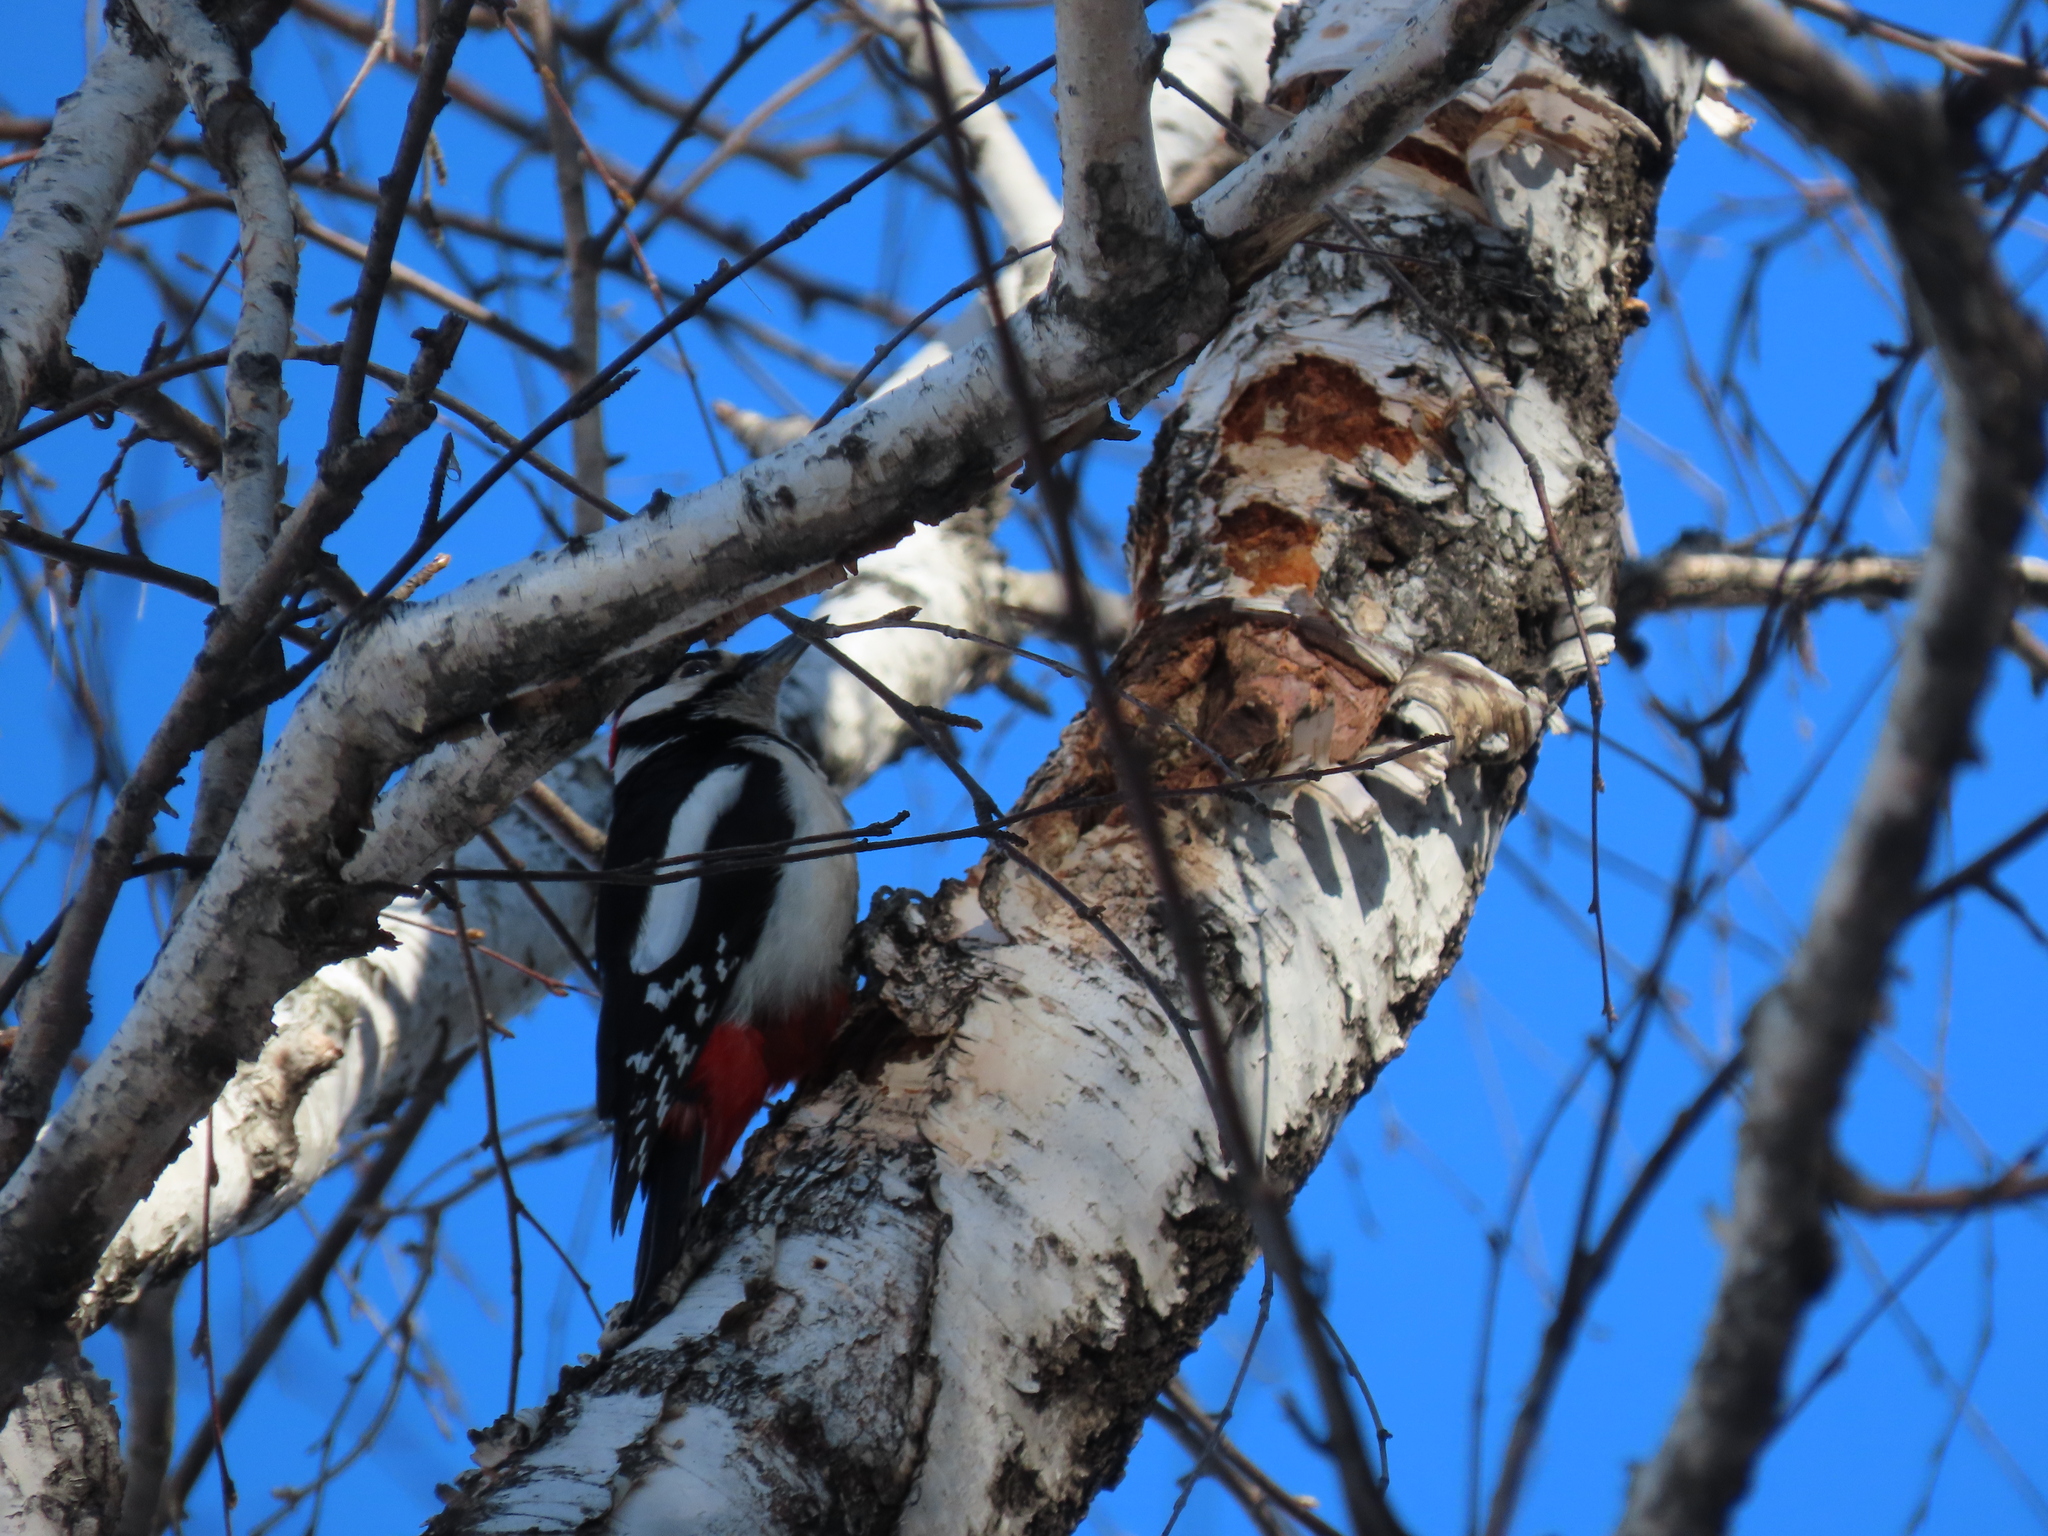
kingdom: Animalia
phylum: Chordata
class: Aves
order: Piciformes
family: Picidae
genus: Dendrocopos
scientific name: Dendrocopos major
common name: Great spotted woodpecker
